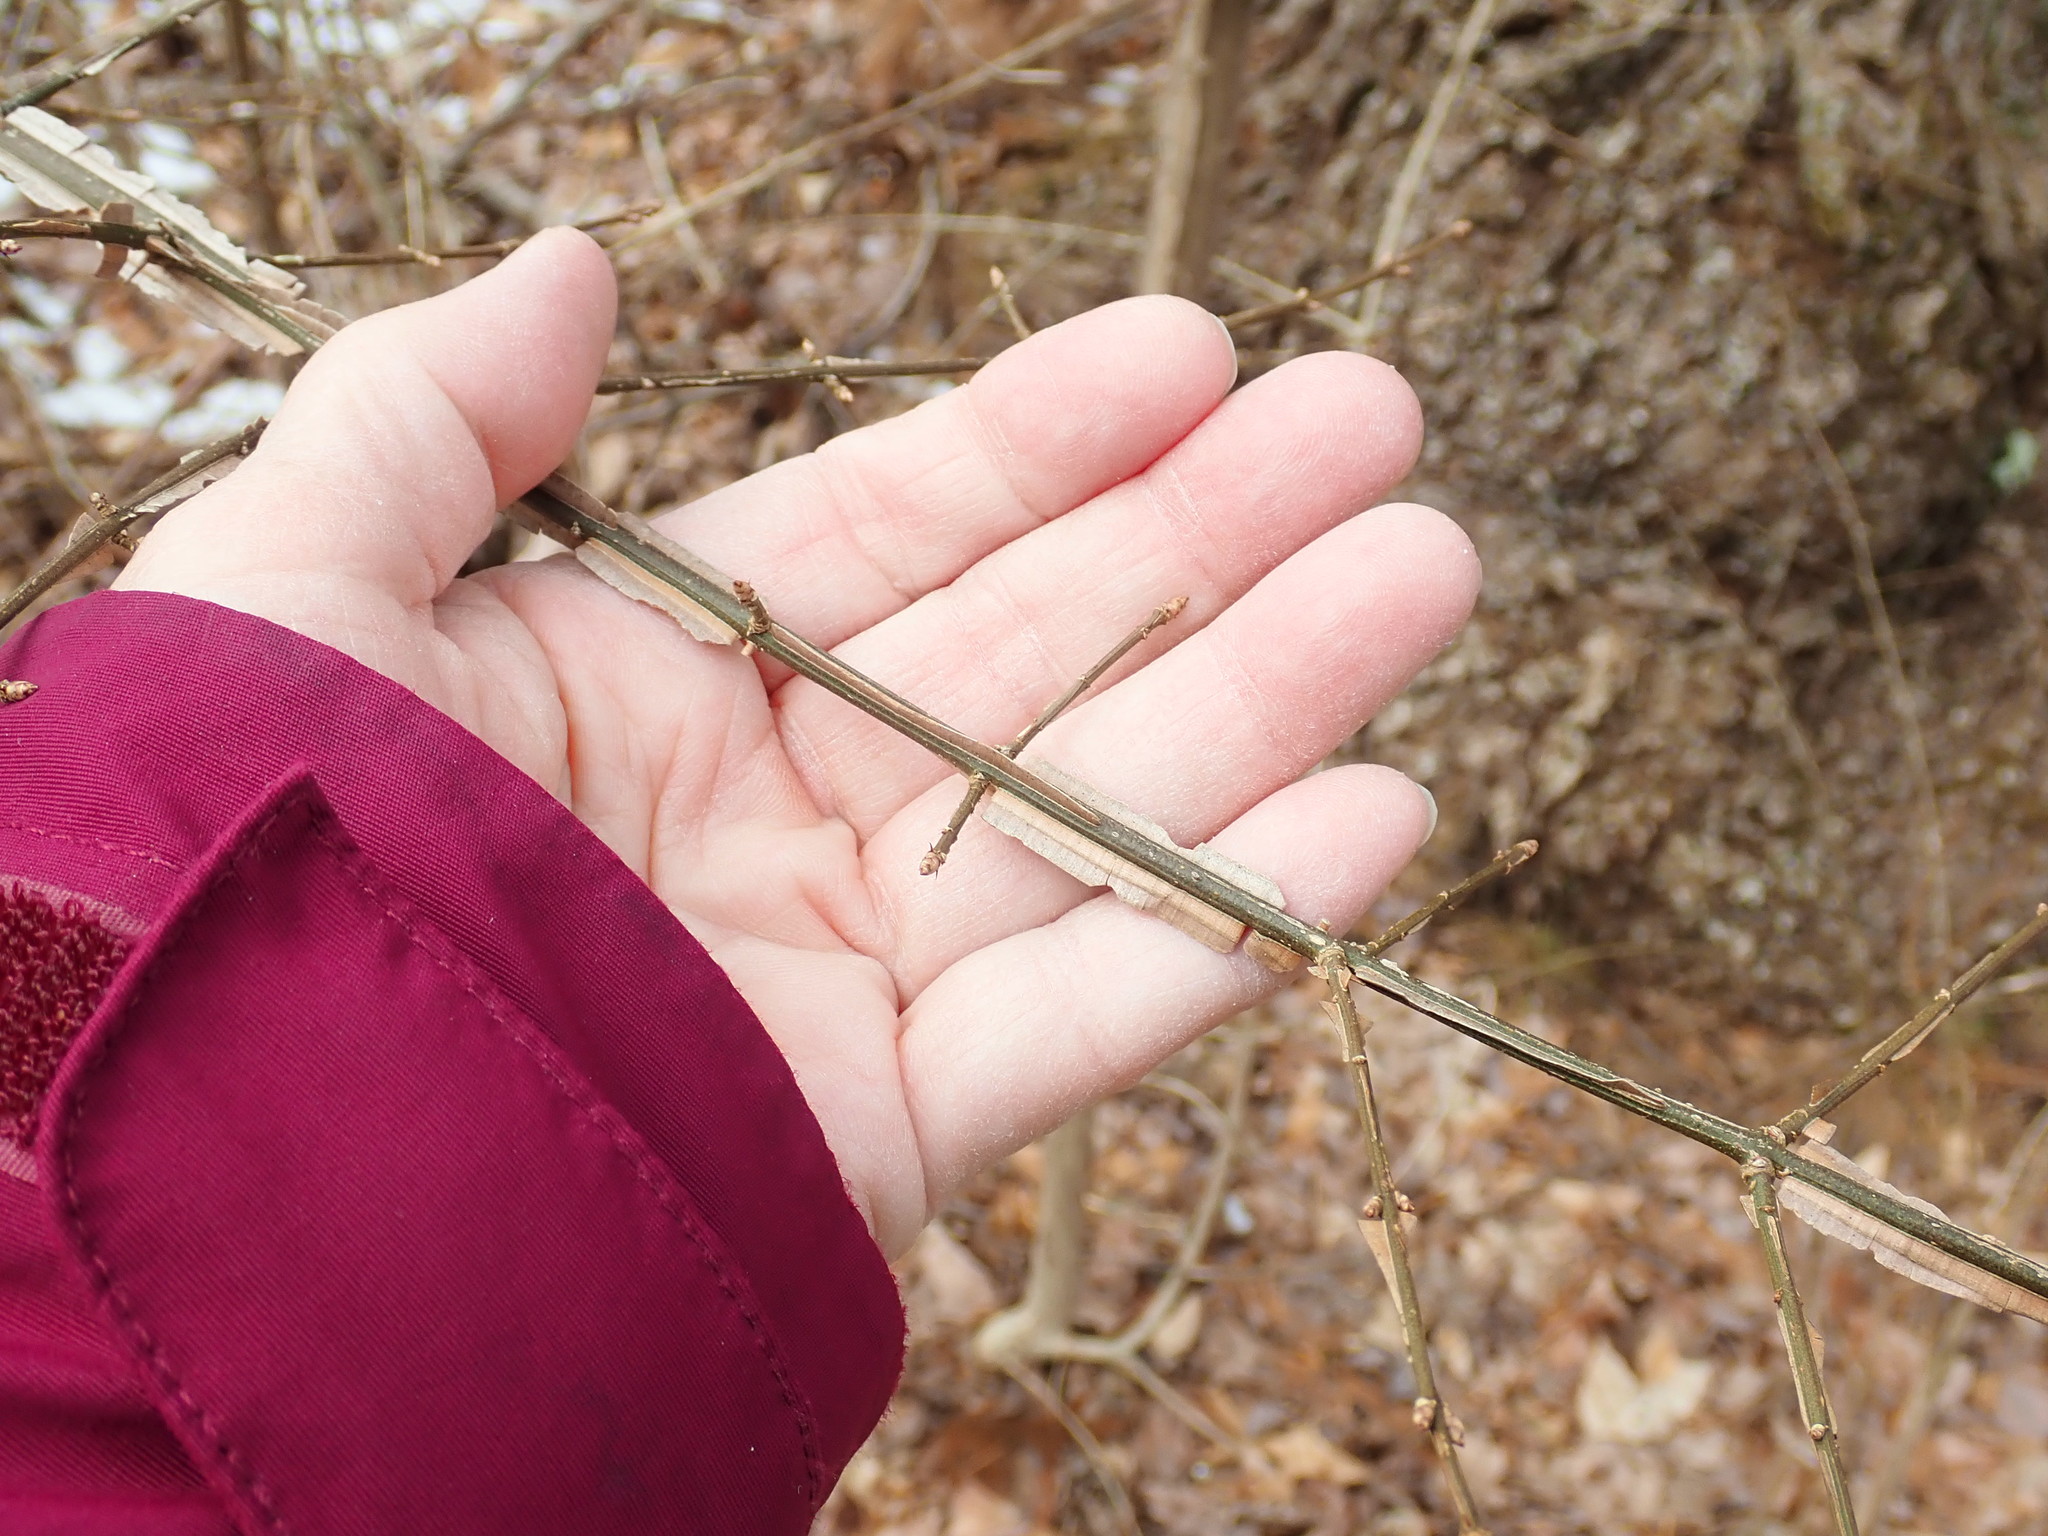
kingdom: Plantae
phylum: Tracheophyta
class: Magnoliopsida
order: Celastrales
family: Celastraceae
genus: Euonymus
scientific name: Euonymus alatus
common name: Winged euonymus
